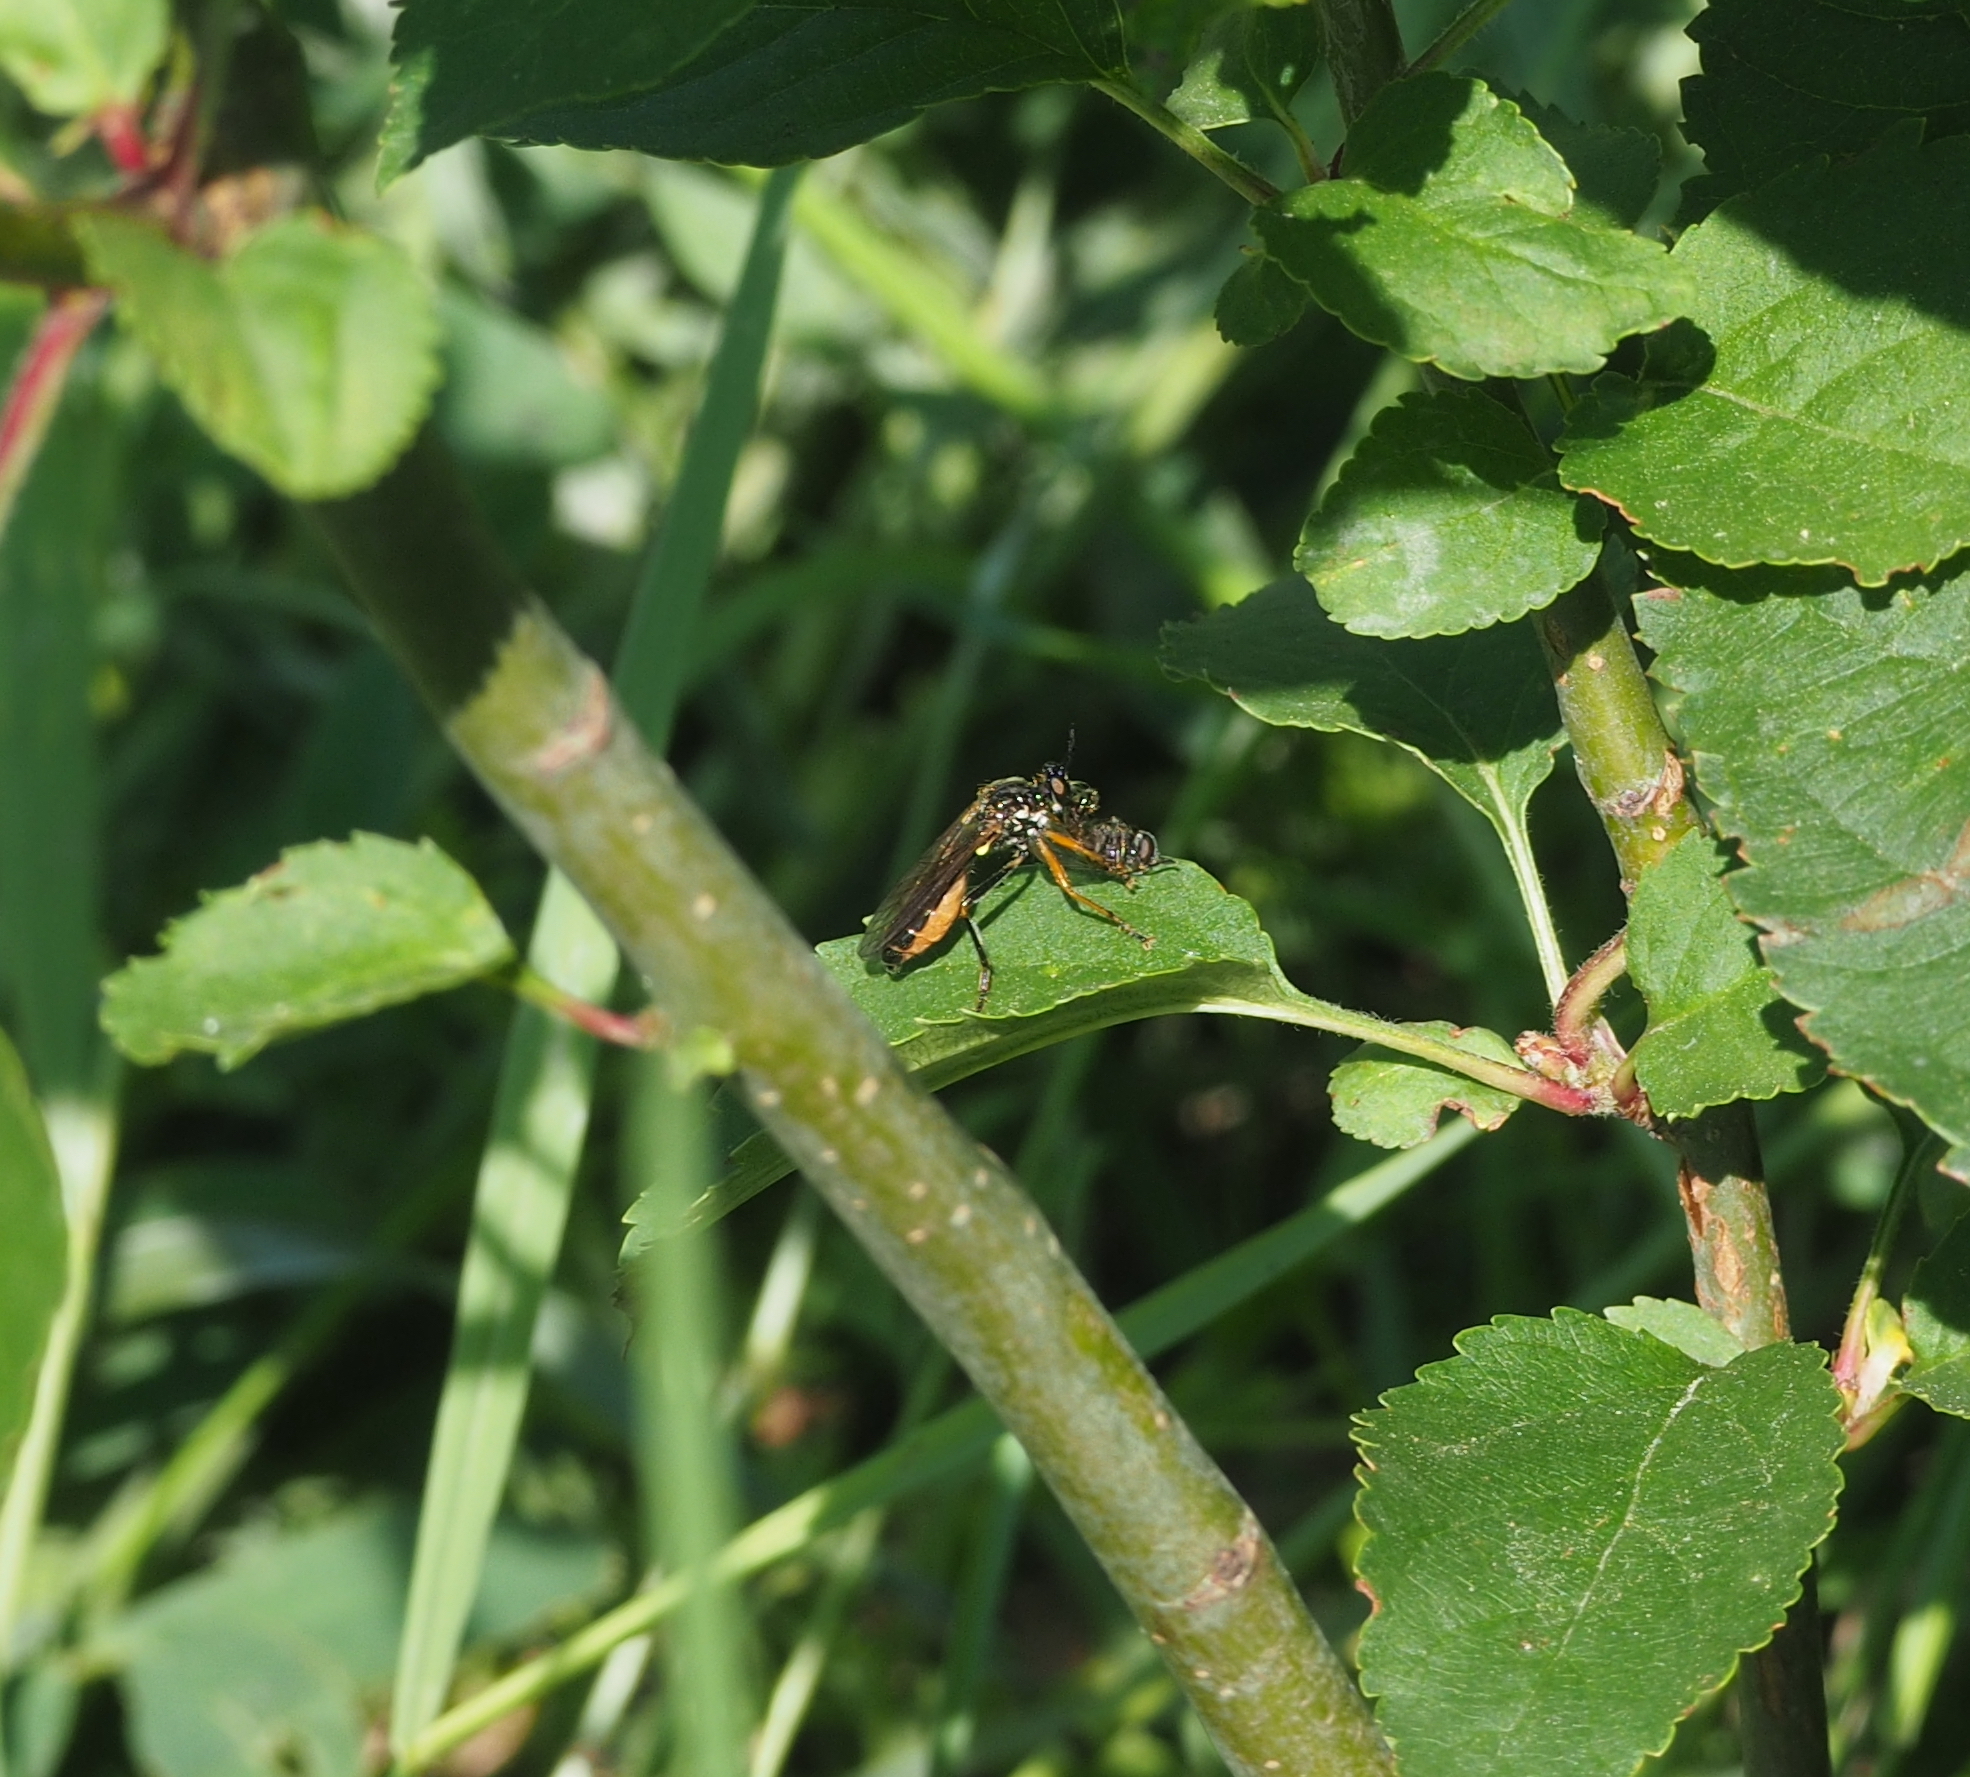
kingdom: Animalia
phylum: Arthropoda
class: Insecta
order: Diptera
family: Asilidae
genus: Dioctria
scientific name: Dioctria rufipes
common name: Common red-legged robberfly
